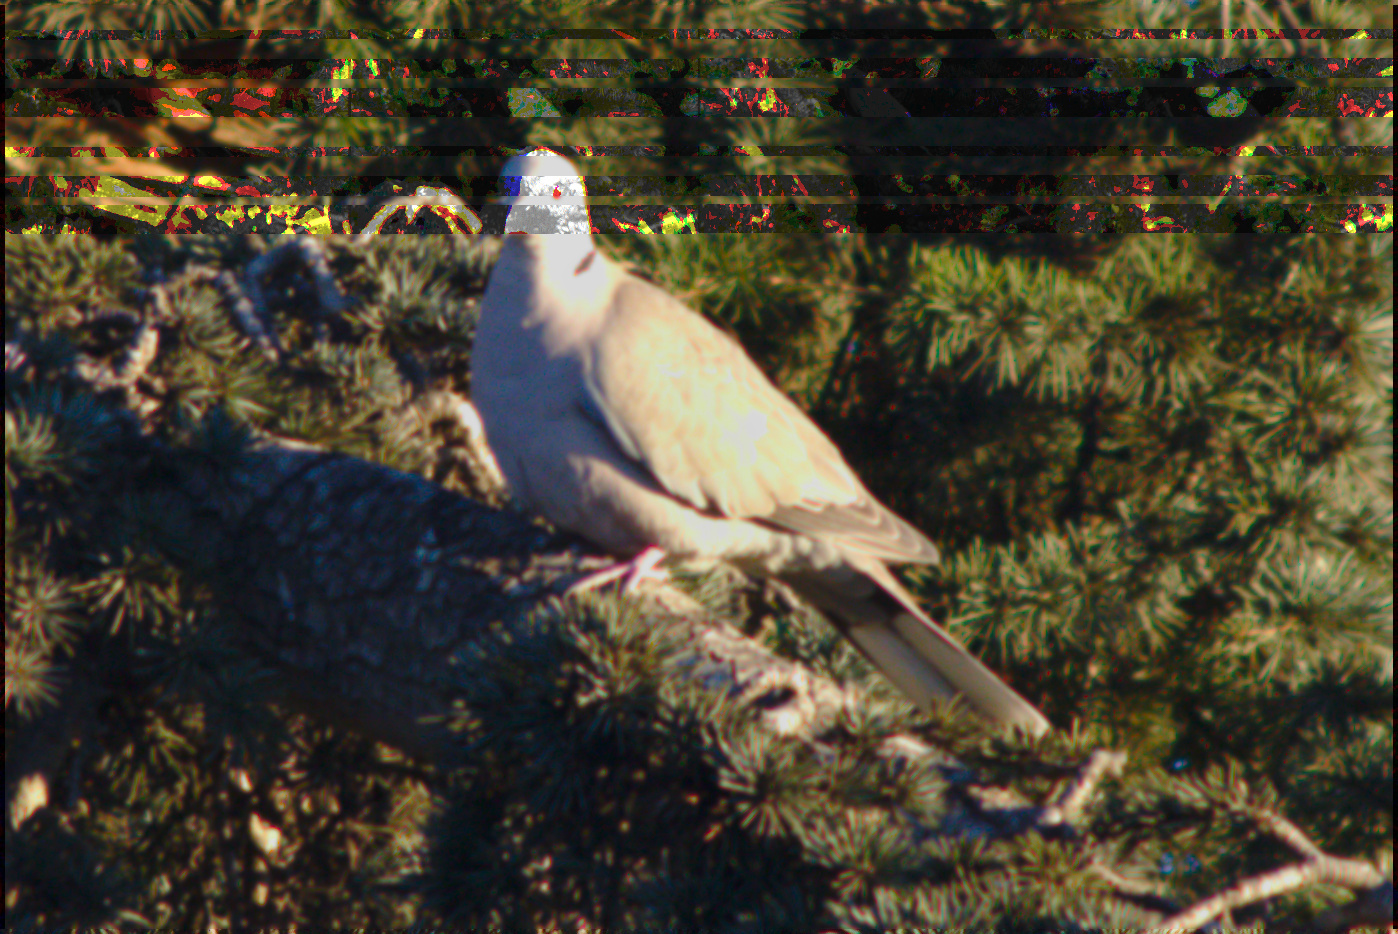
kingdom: Animalia
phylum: Chordata
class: Aves
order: Columbiformes
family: Columbidae
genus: Streptopelia
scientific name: Streptopelia decaocto
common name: Eurasian collared dove
